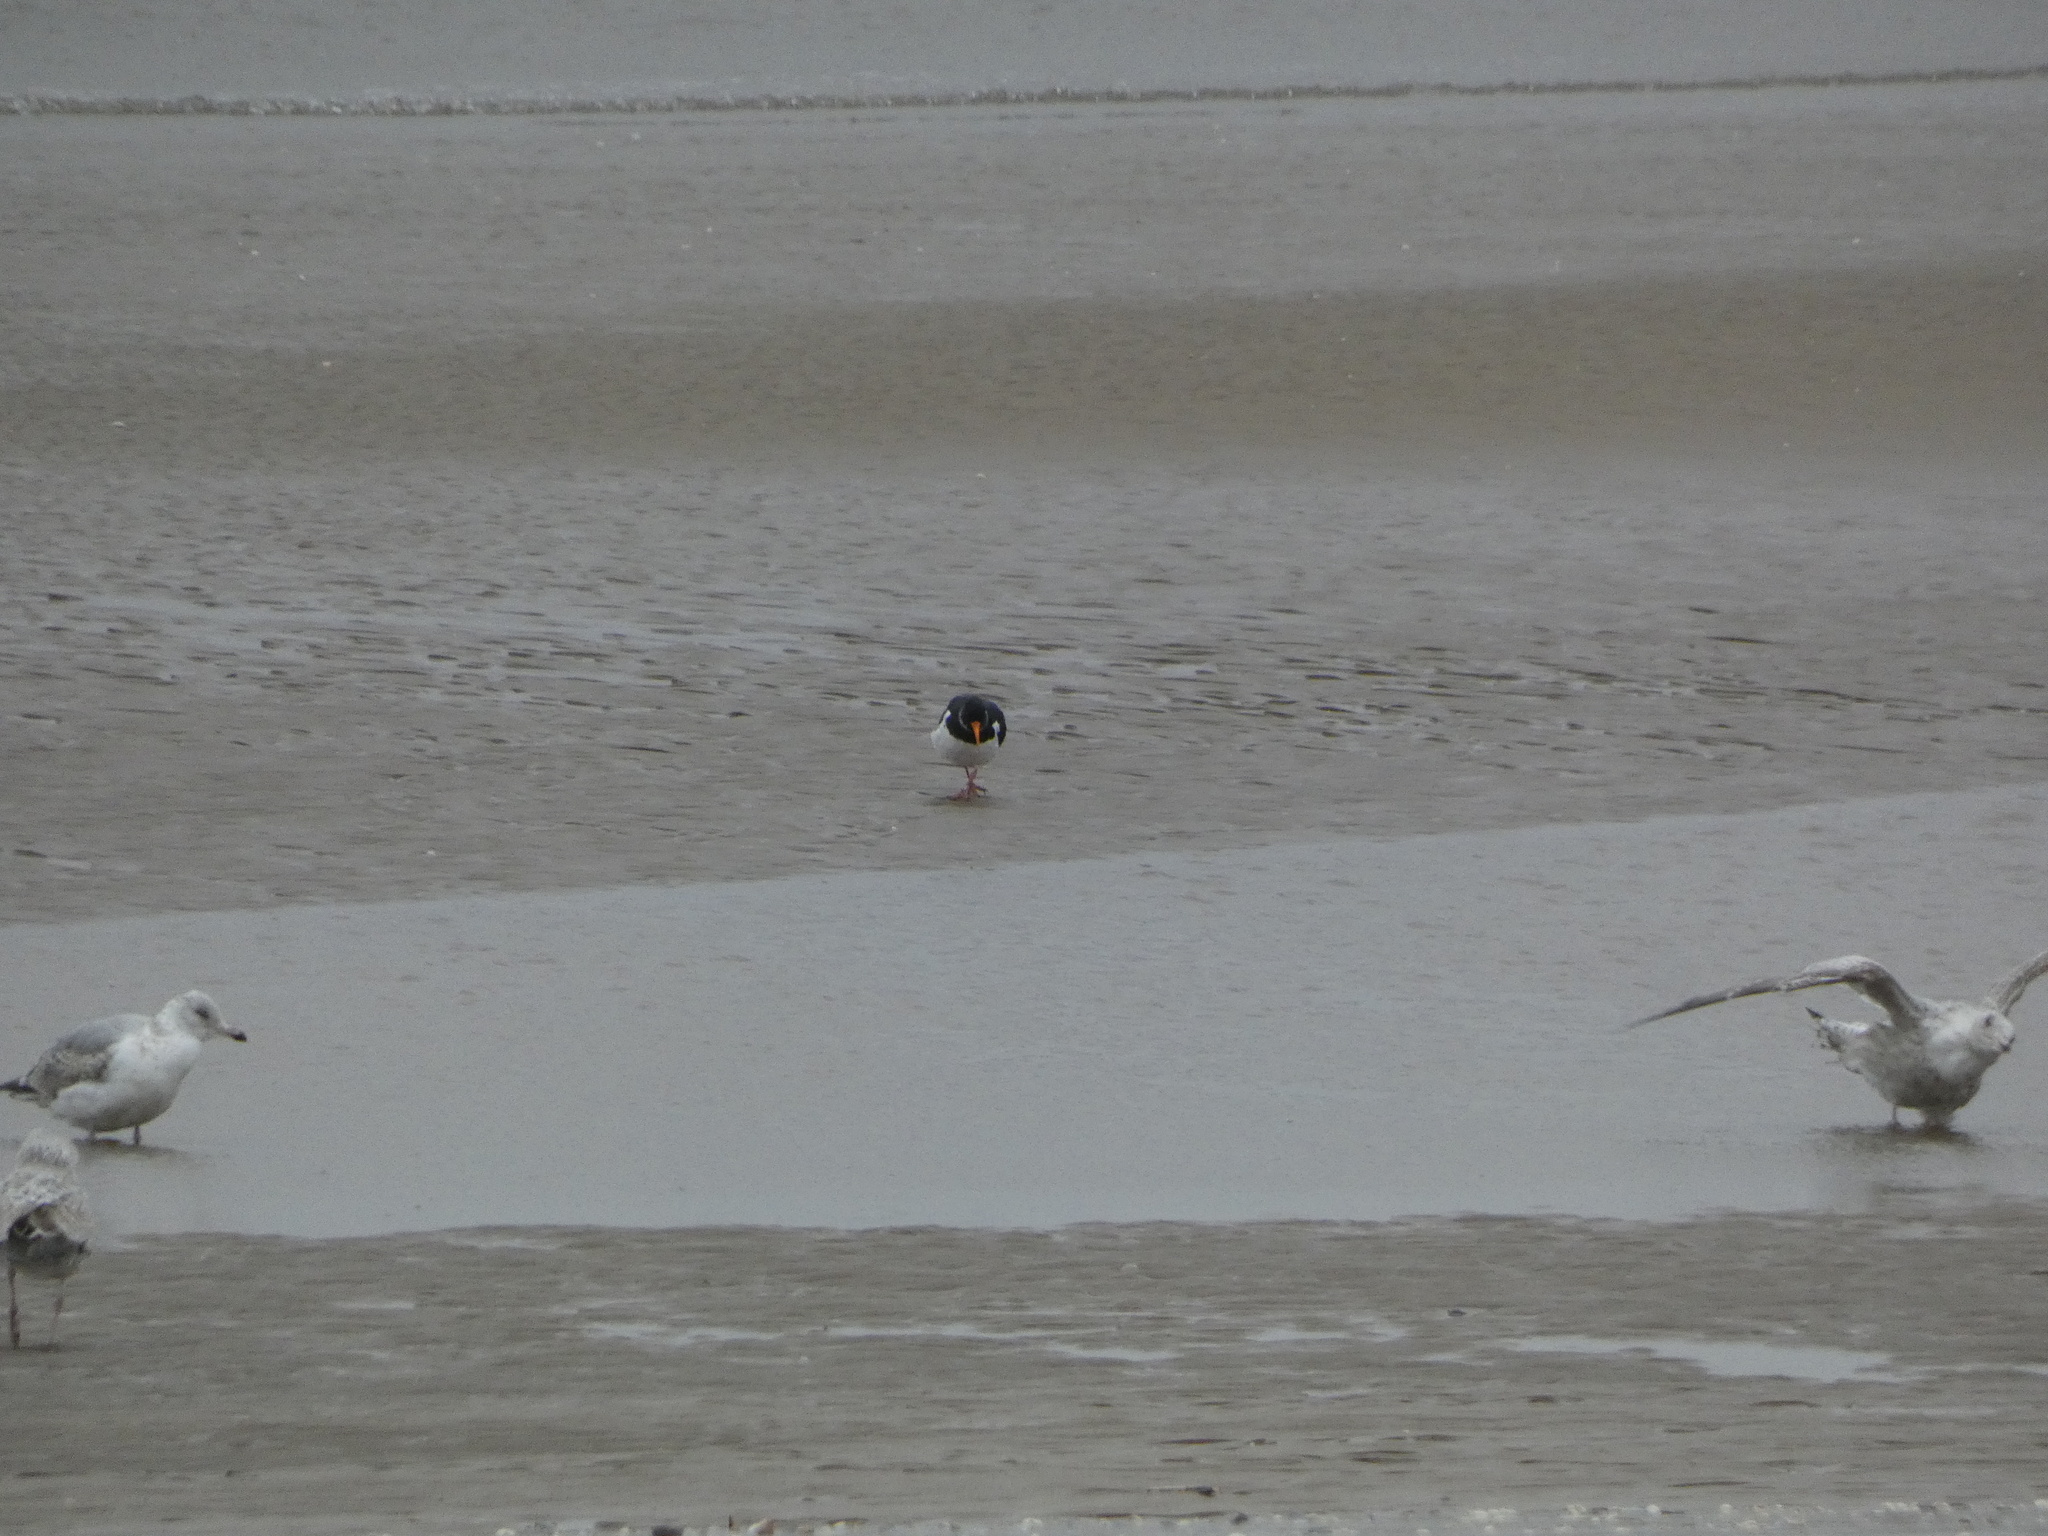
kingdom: Animalia
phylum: Chordata
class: Aves
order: Charadriiformes
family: Haematopodidae
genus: Haematopus
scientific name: Haematopus ostralegus
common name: Eurasian oystercatcher
